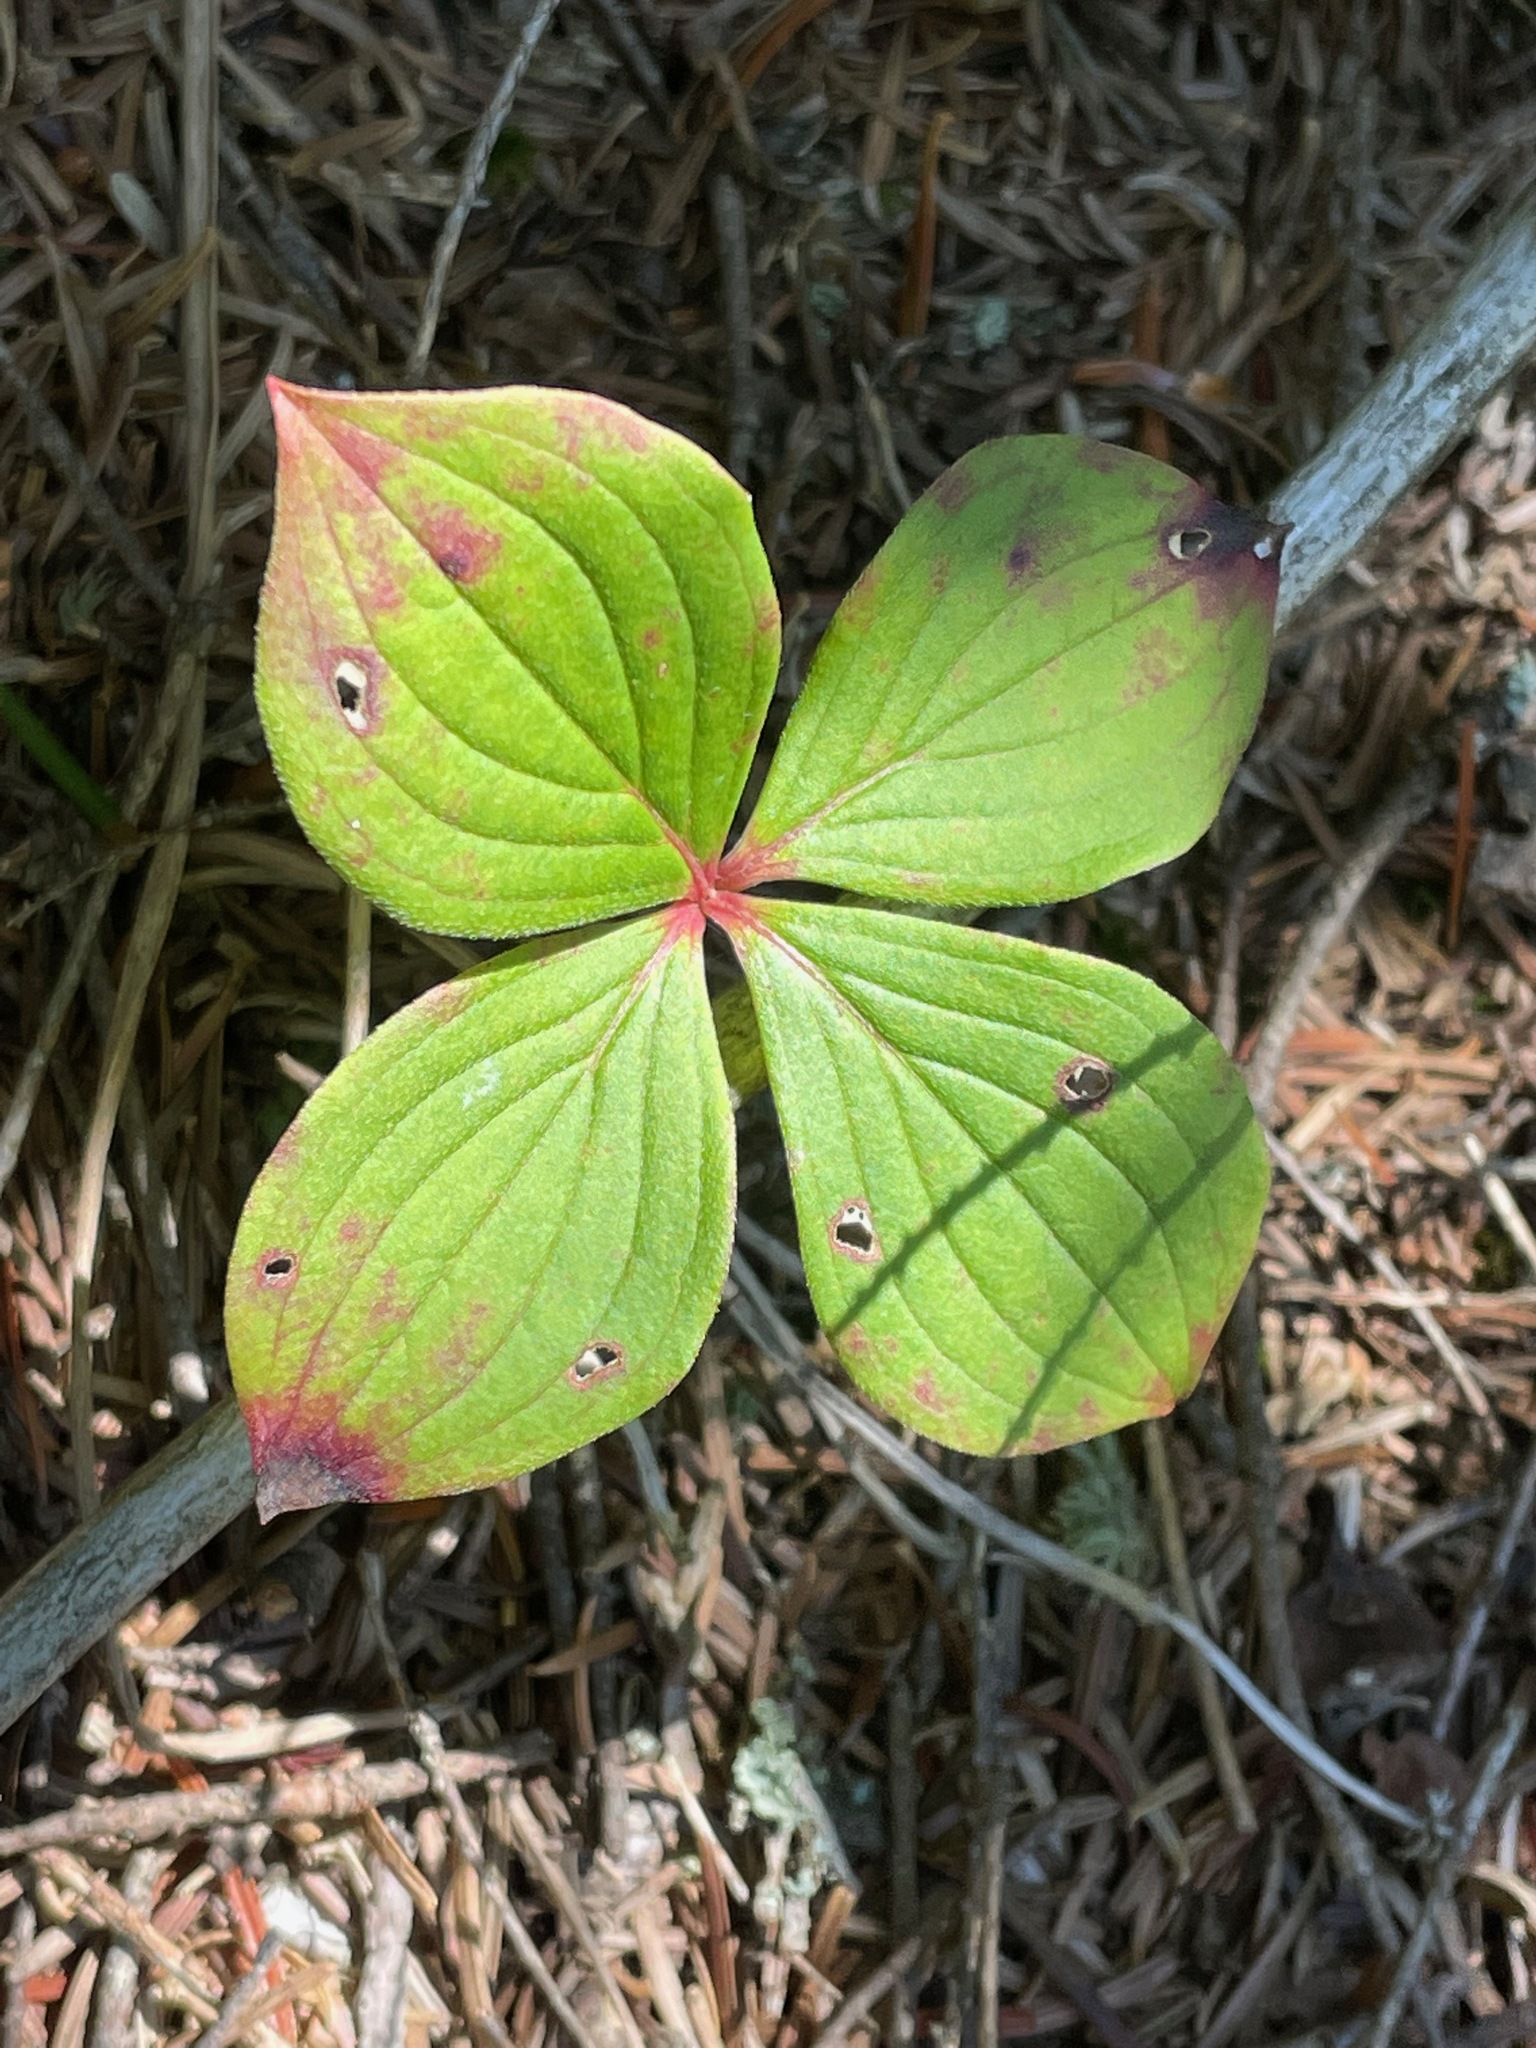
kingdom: Plantae
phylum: Tracheophyta
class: Magnoliopsida
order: Cornales
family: Cornaceae
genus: Cornus
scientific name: Cornus canadensis
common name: Creeping dogwood
